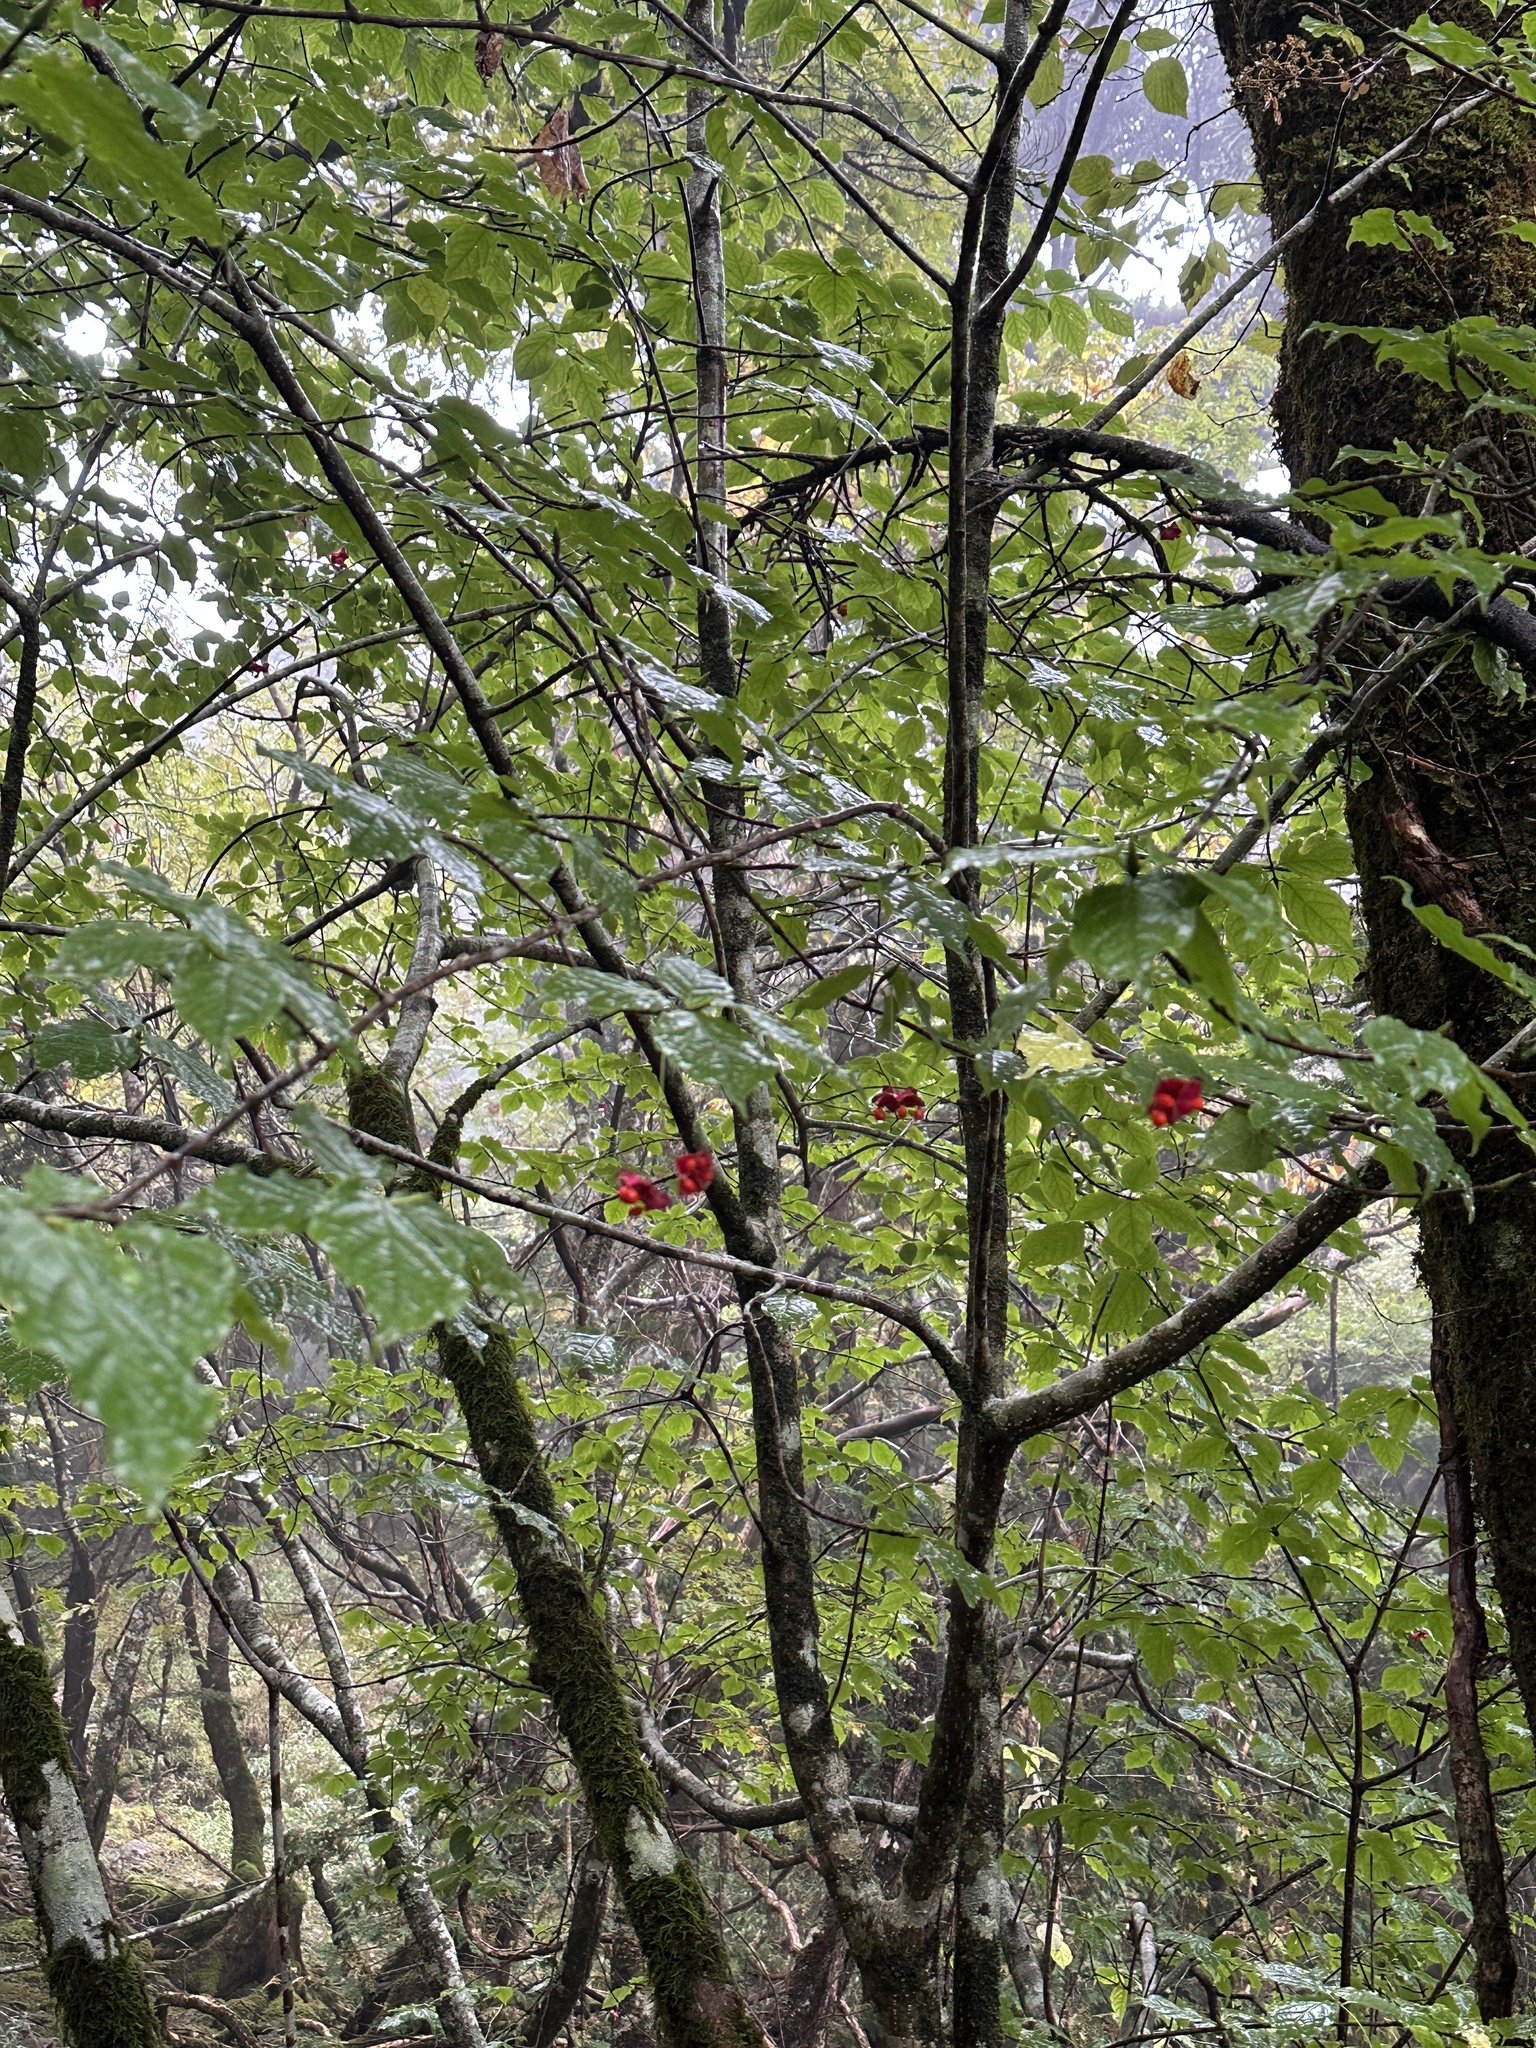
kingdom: Plantae
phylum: Tracheophyta
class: Magnoliopsida
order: Celastrales
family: Celastraceae
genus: Euonymus
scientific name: Euonymus oxyphyllus
